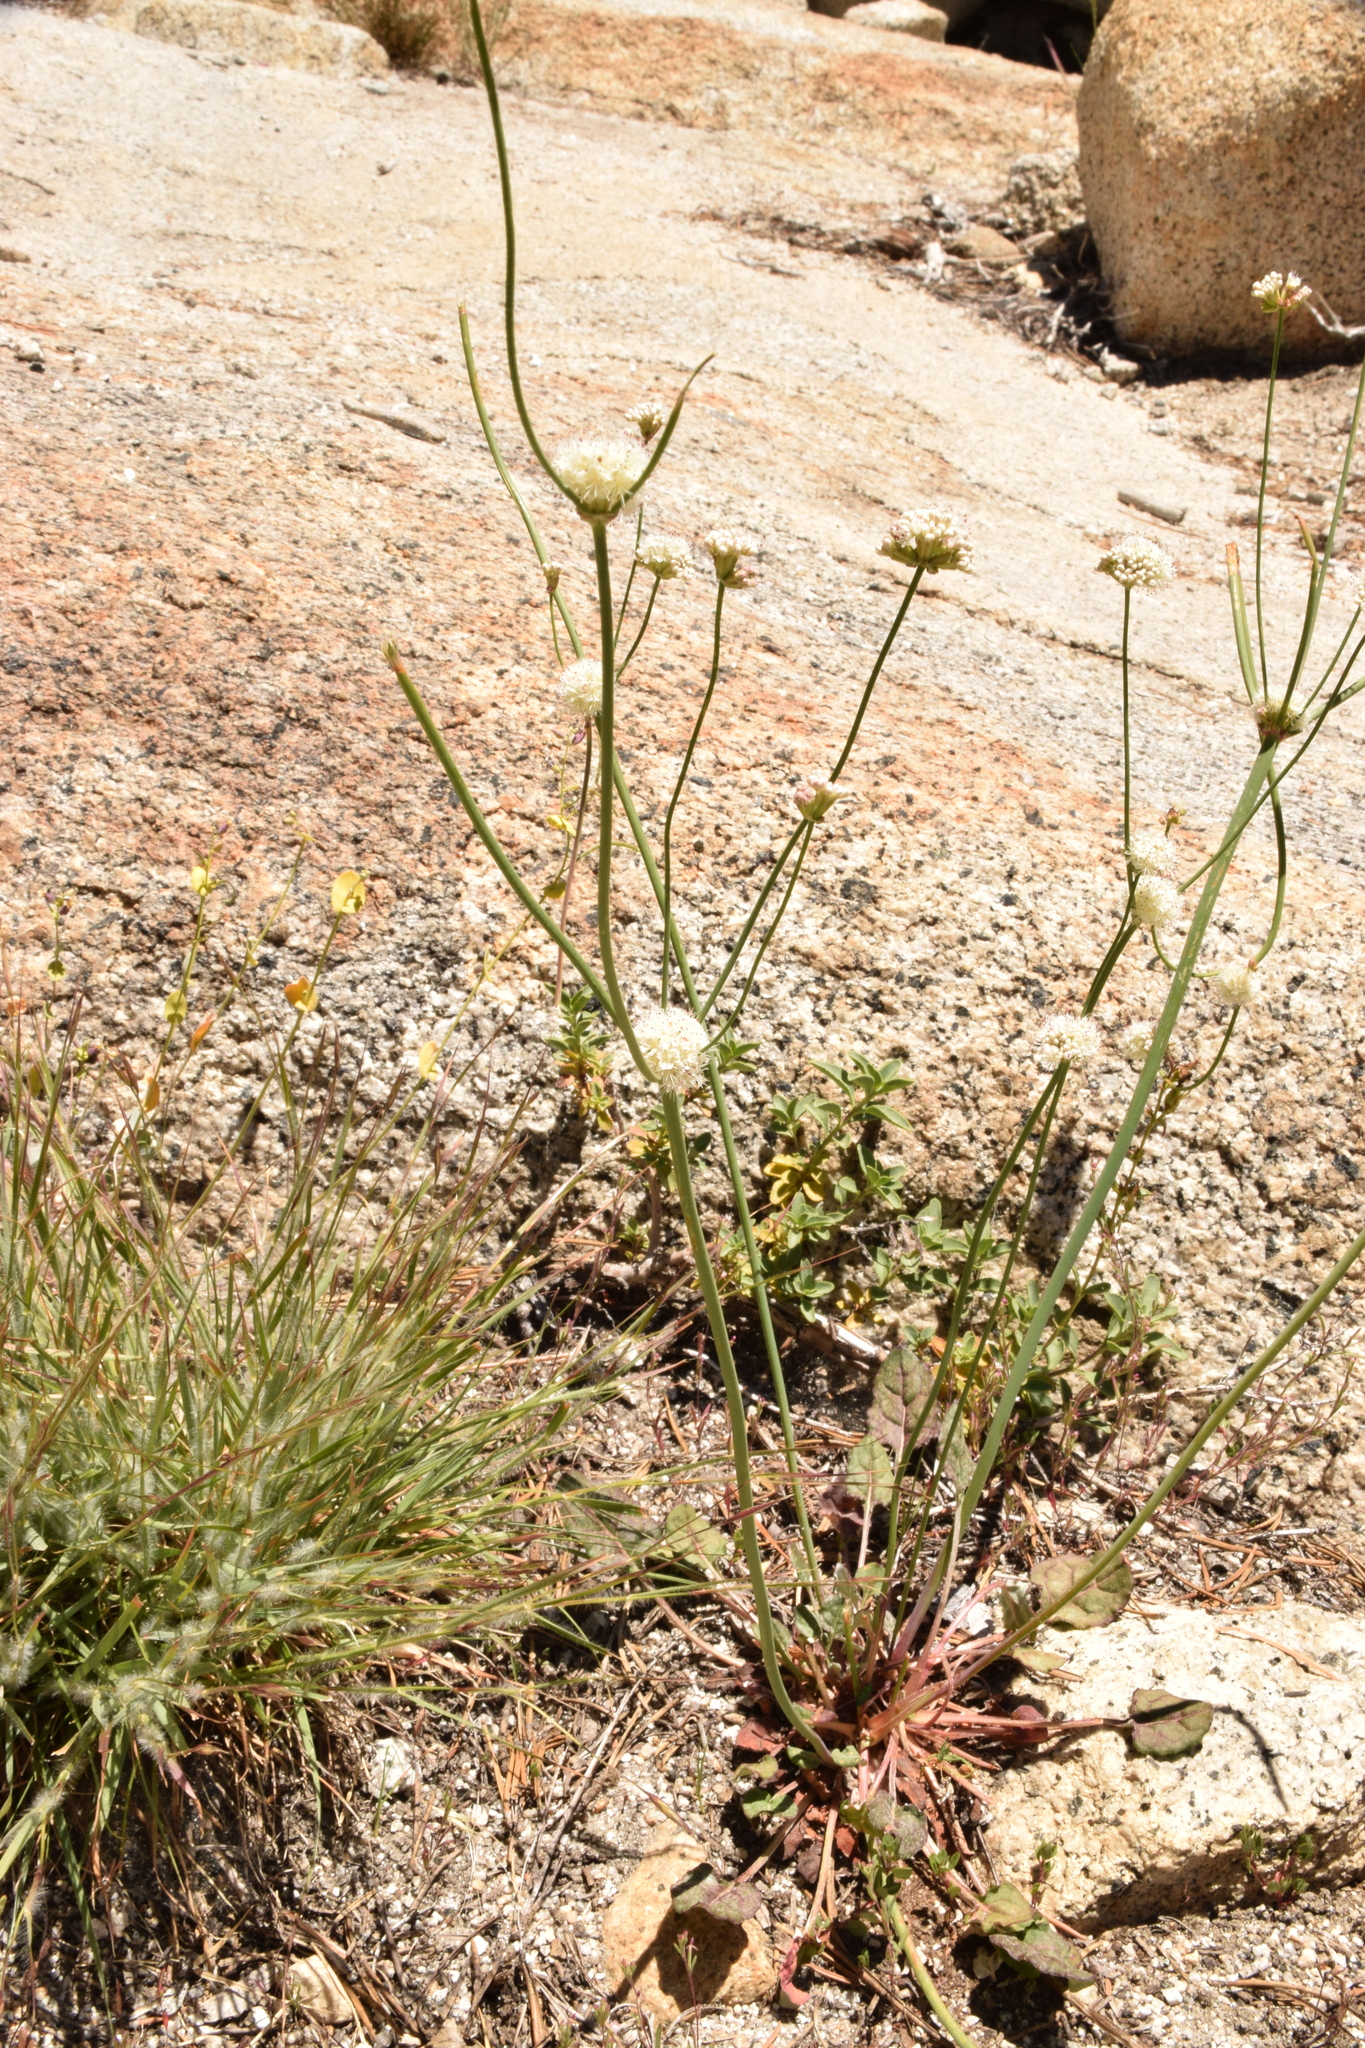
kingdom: Plantae
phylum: Tracheophyta
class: Magnoliopsida
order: Caryophyllales
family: Polygonaceae
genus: Eriogonum
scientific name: Eriogonum nudum
